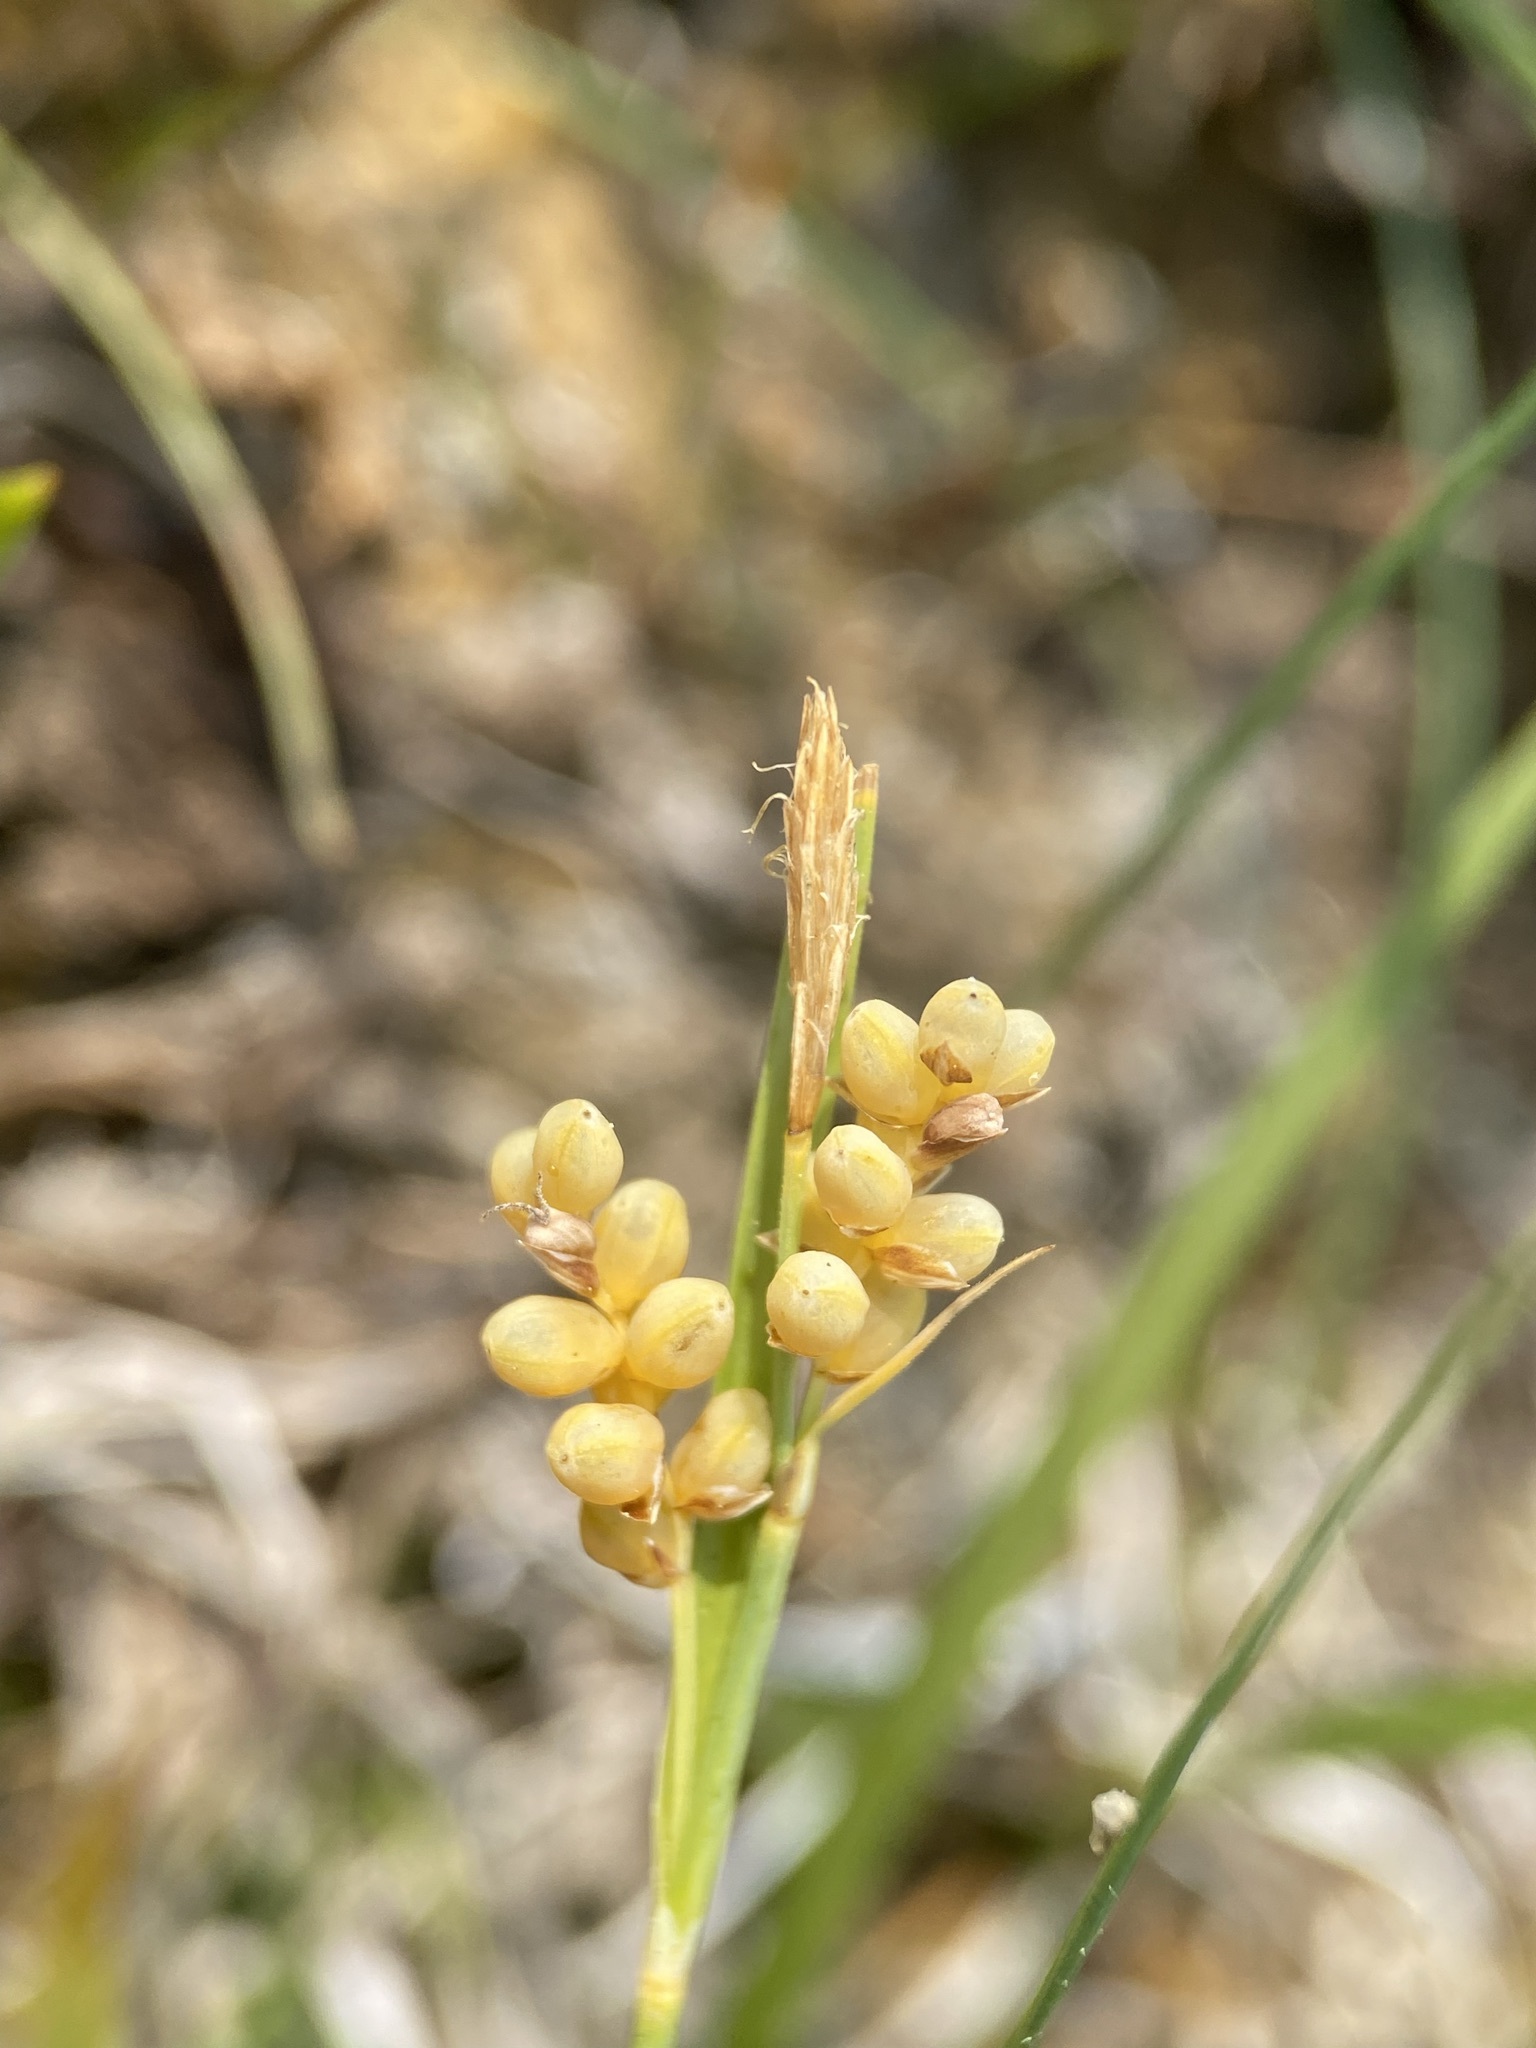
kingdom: Plantae
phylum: Tracheophyta
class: Liliopsida
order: Poales
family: Cyperaceae
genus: Carex
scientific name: Carex aurea
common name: Golden sedge
